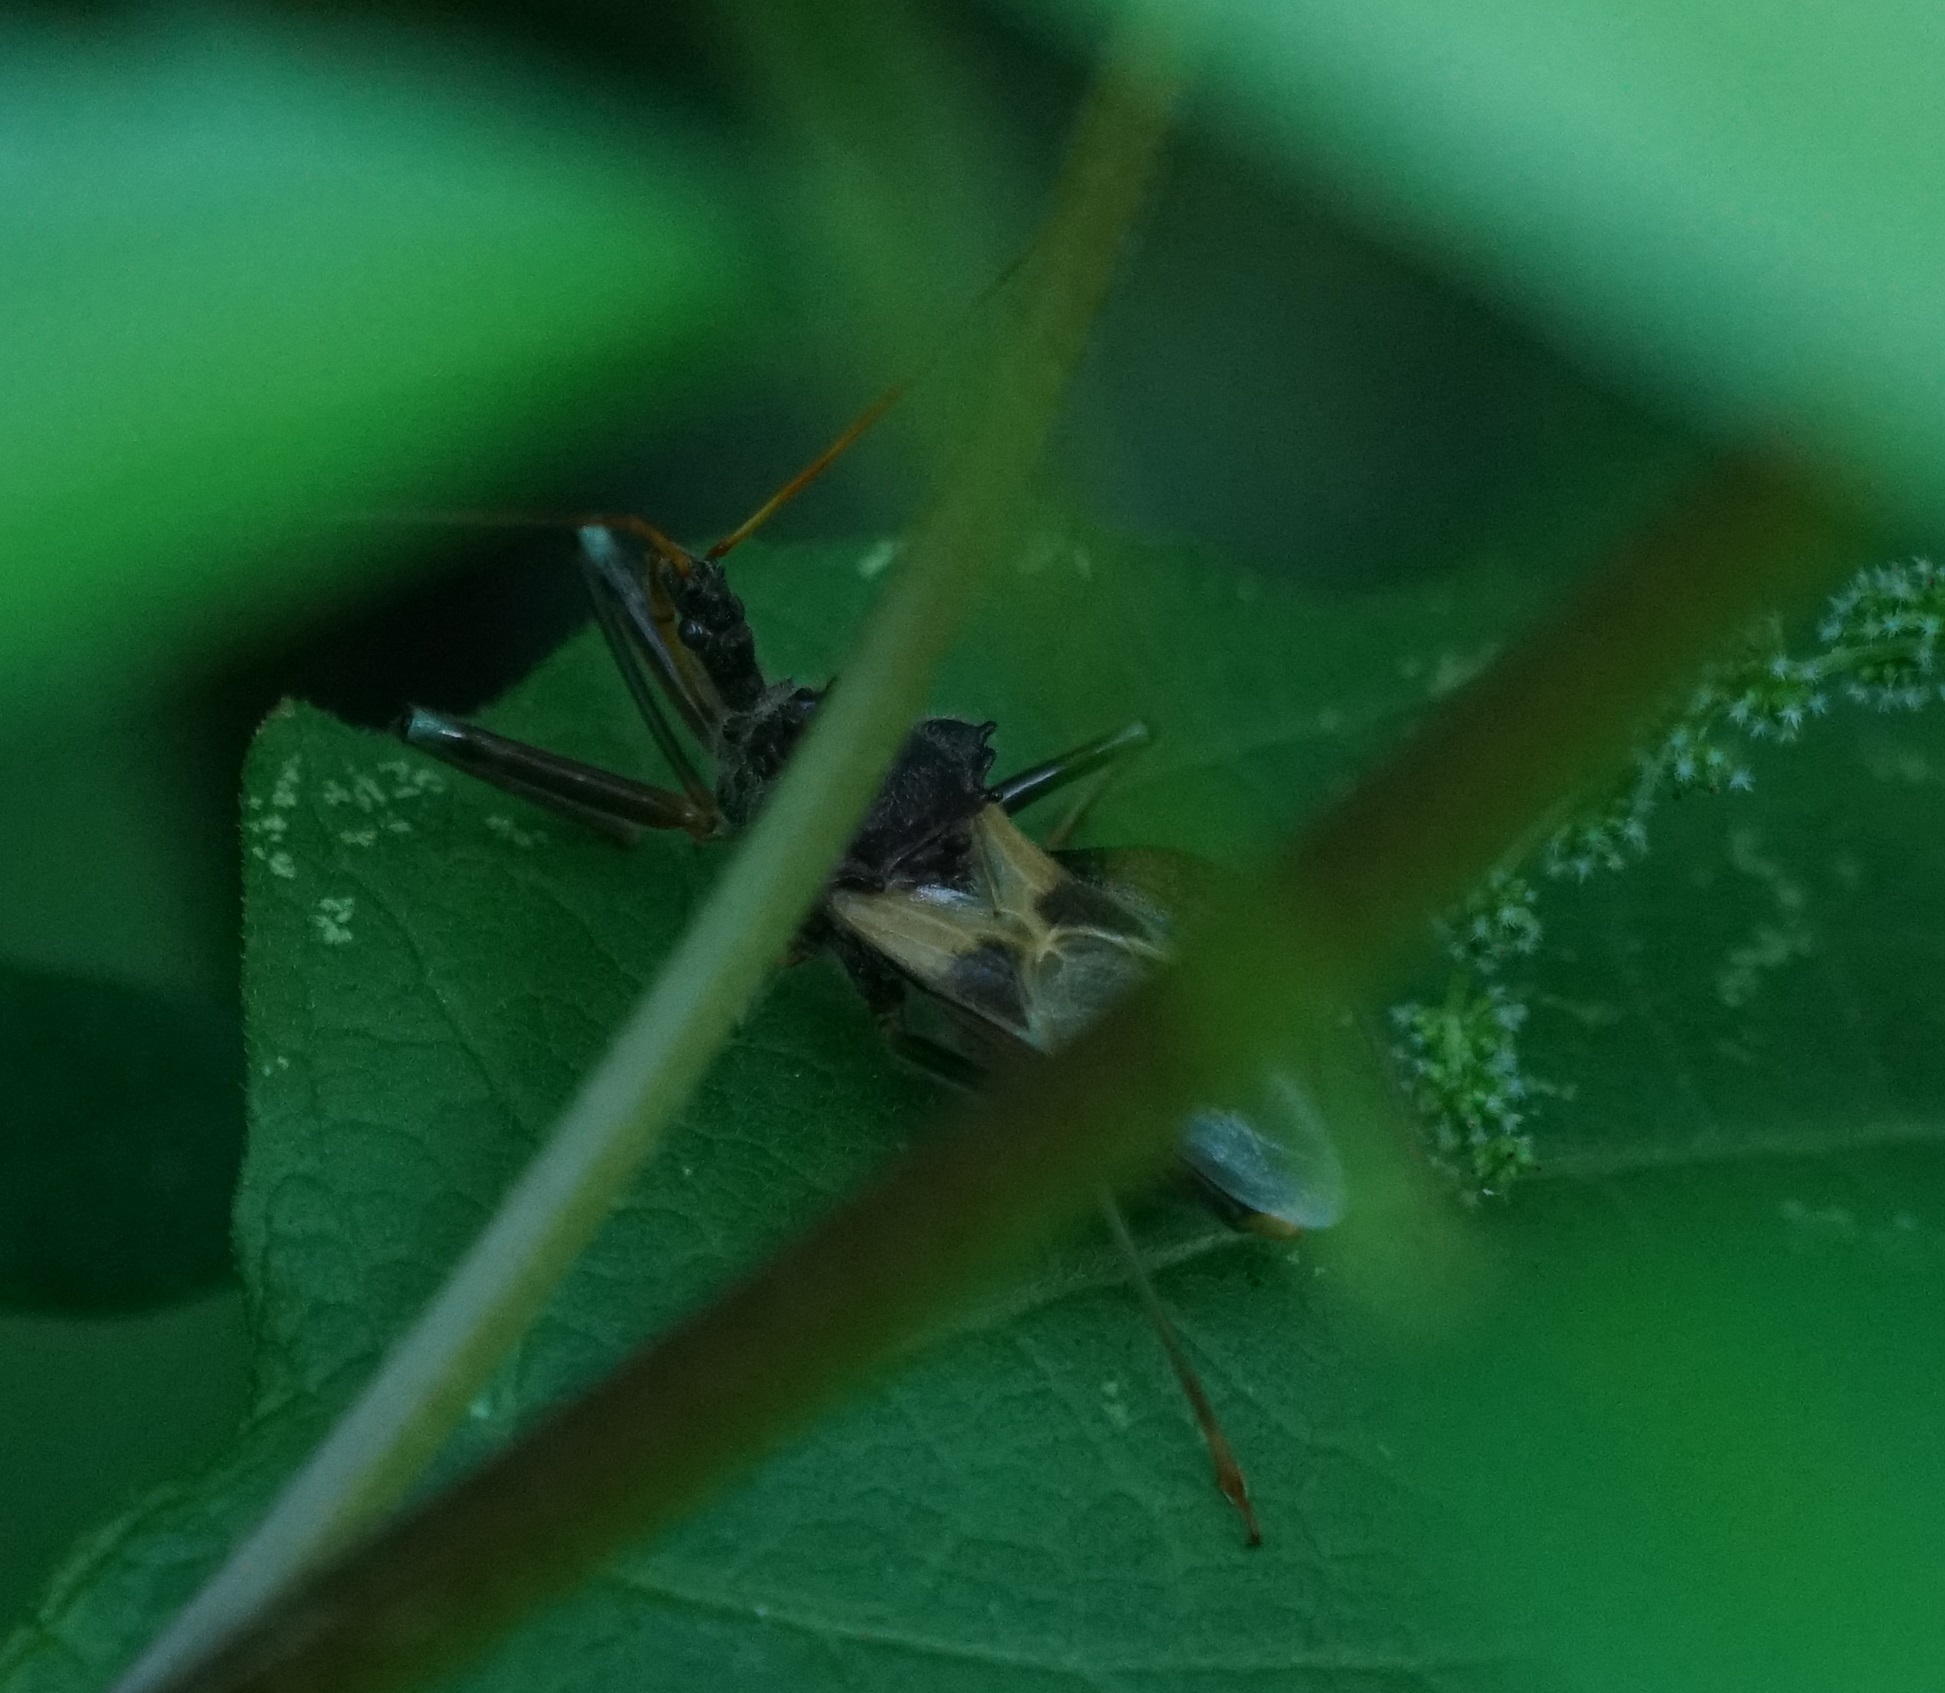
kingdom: Animalia
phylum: Arthropoda
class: Insecta
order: Hemiptera
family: Reduviidae
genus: Pristhesancus
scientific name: Pristhesancus plagipennis
